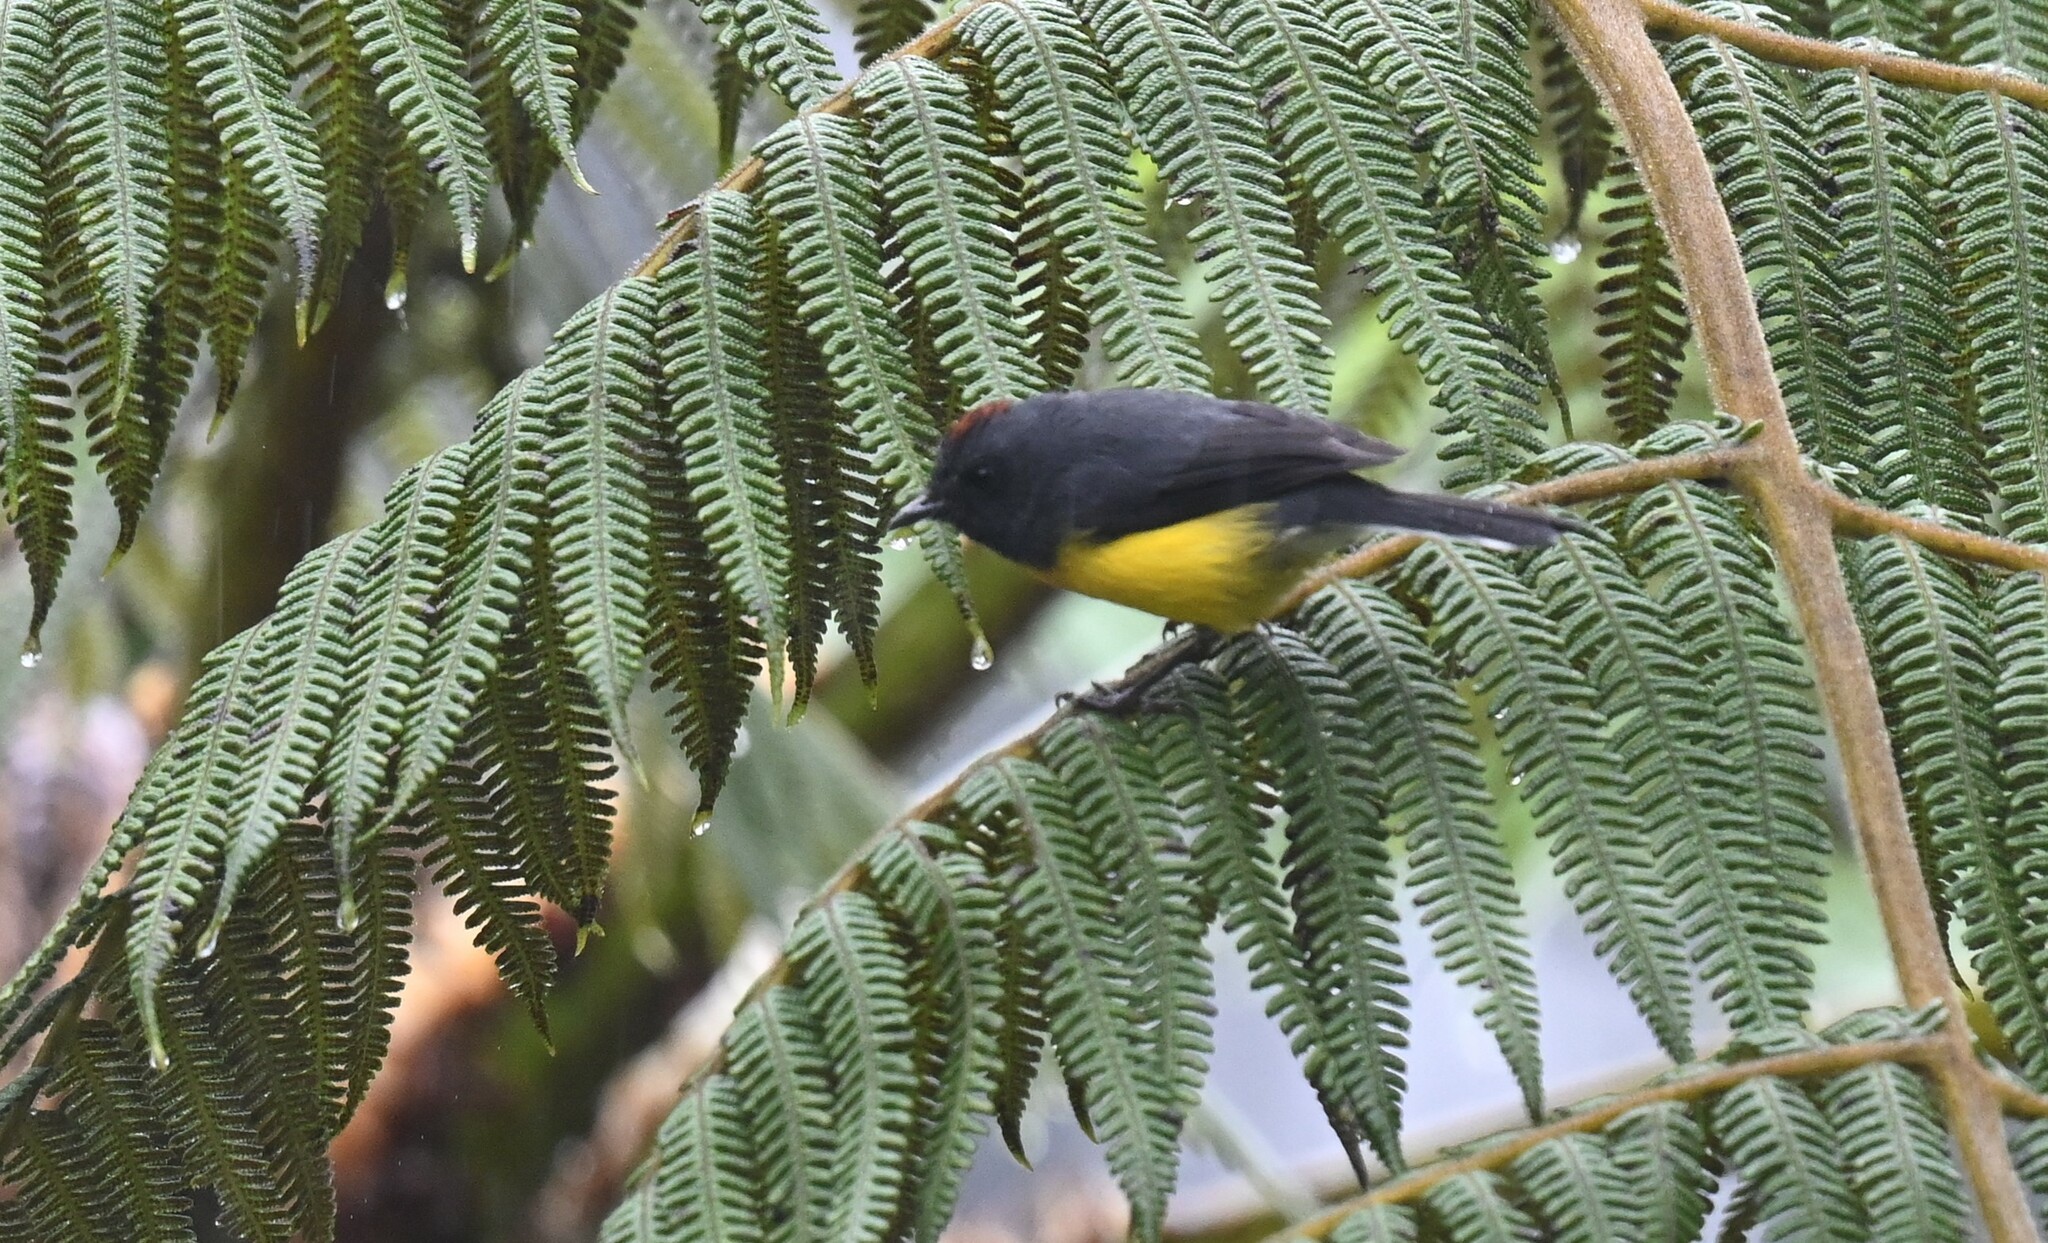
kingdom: Animalia
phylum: Chordata
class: Aves
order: Passeriformes
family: Parulidae
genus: Myioborus
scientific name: Myioborus miniatus
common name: Slate-throated redstart
